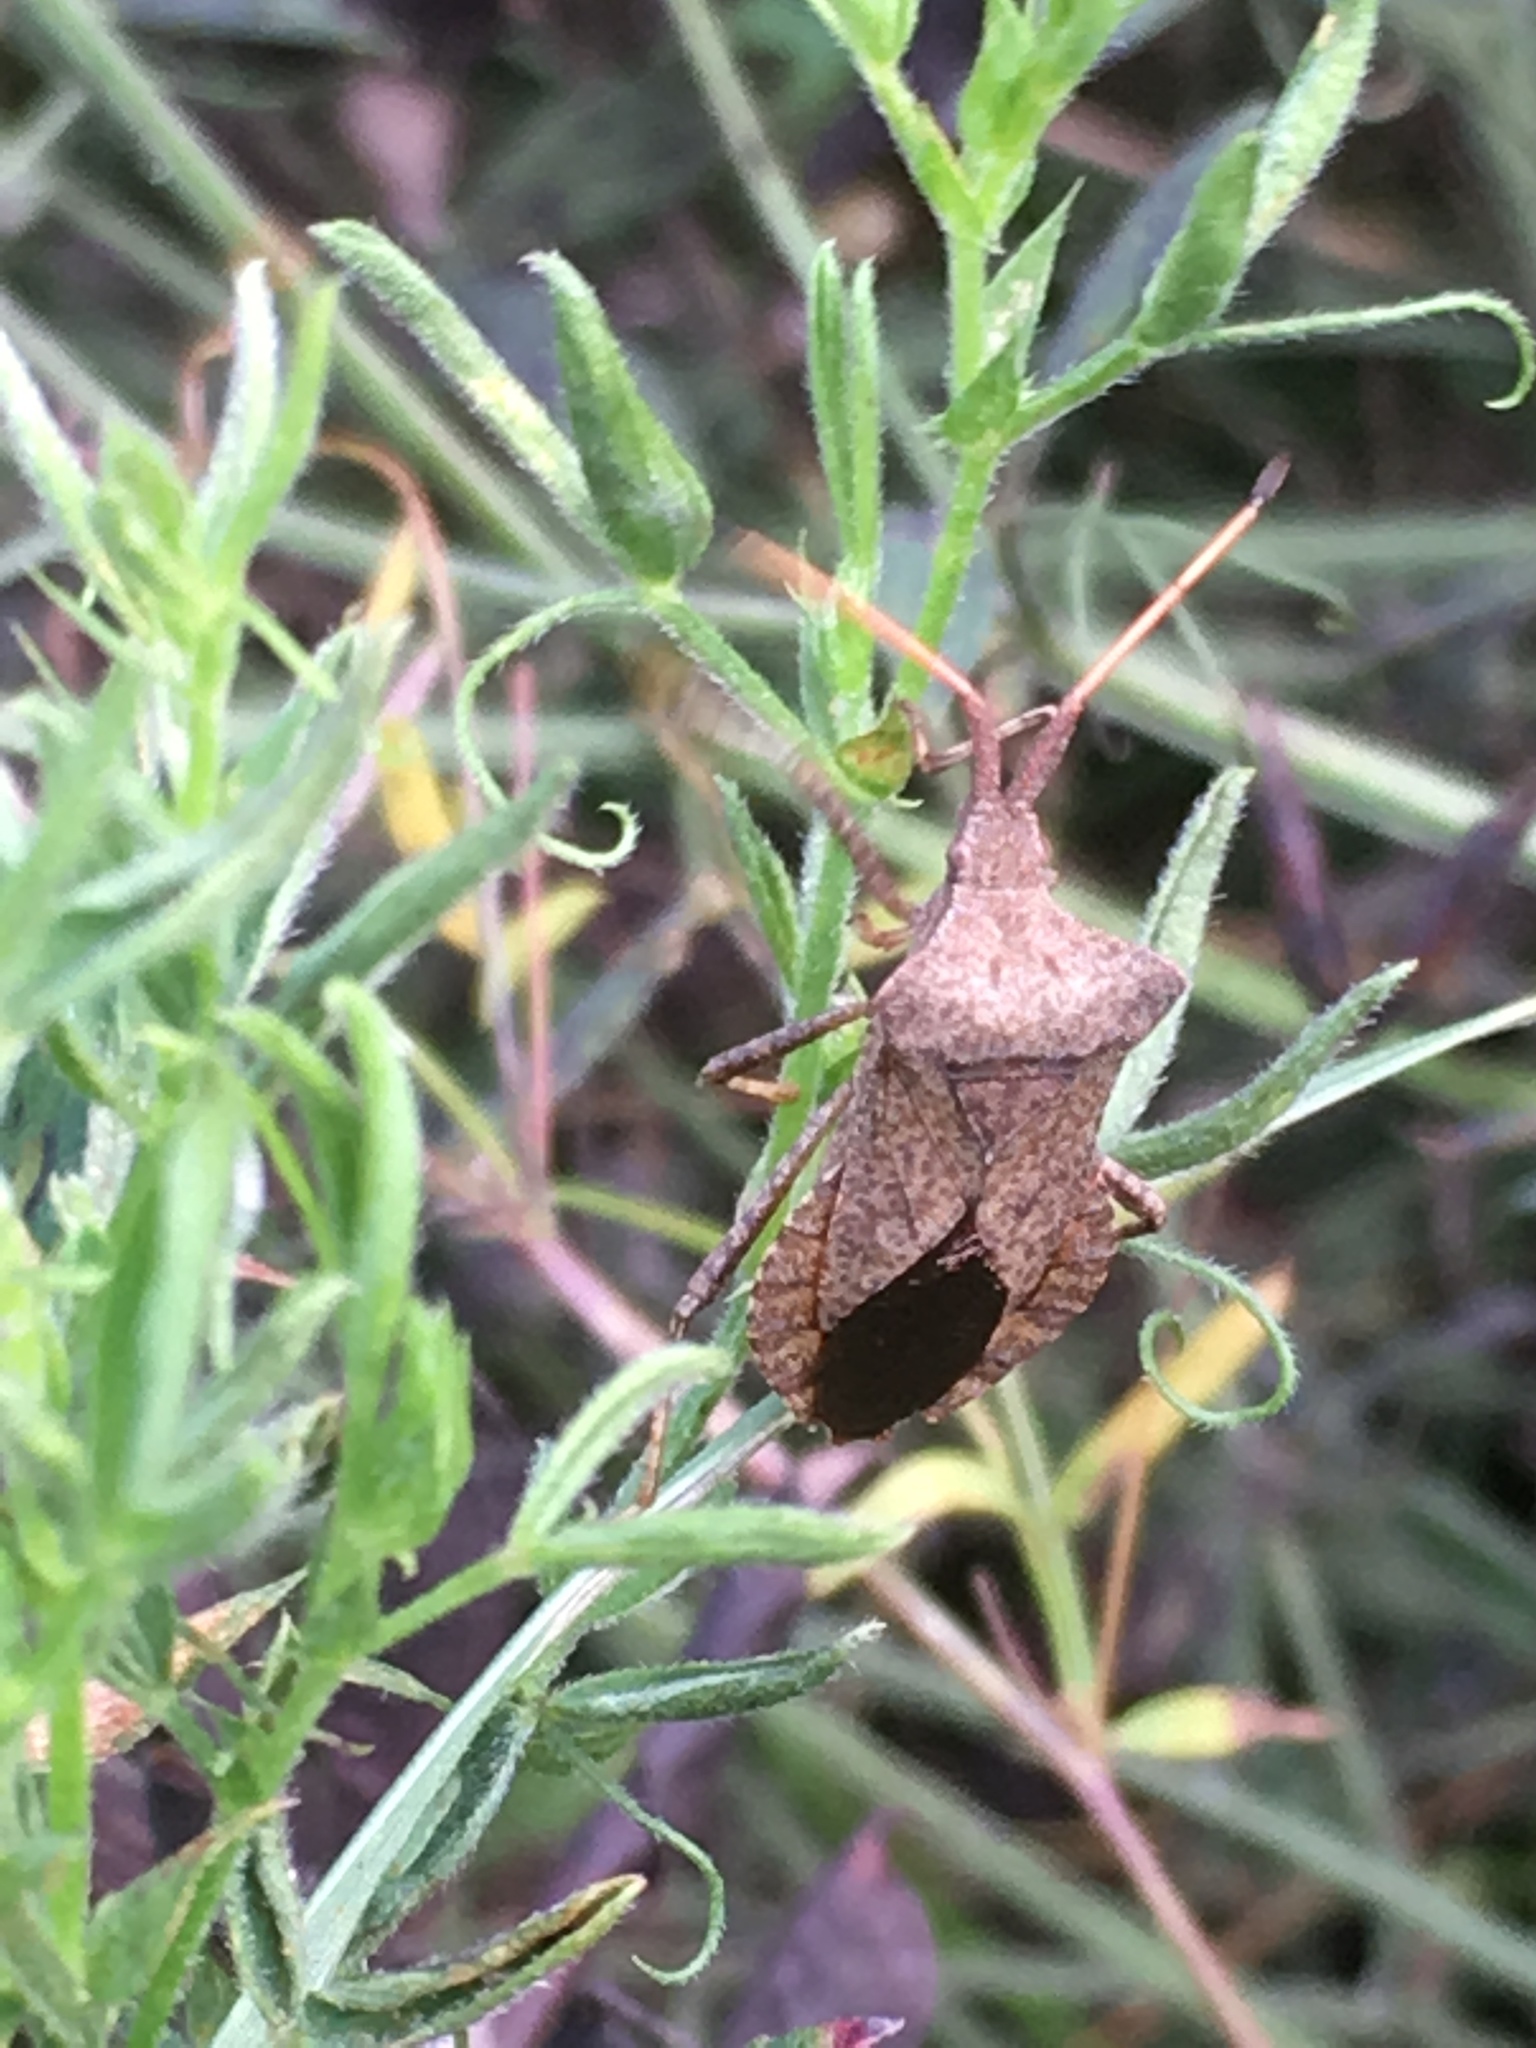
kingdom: Animalia
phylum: Arthropoda
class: Insecta
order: Hemiptera
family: Coreidae
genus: Coreus
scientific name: Coreus marginatus
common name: Dock bug
